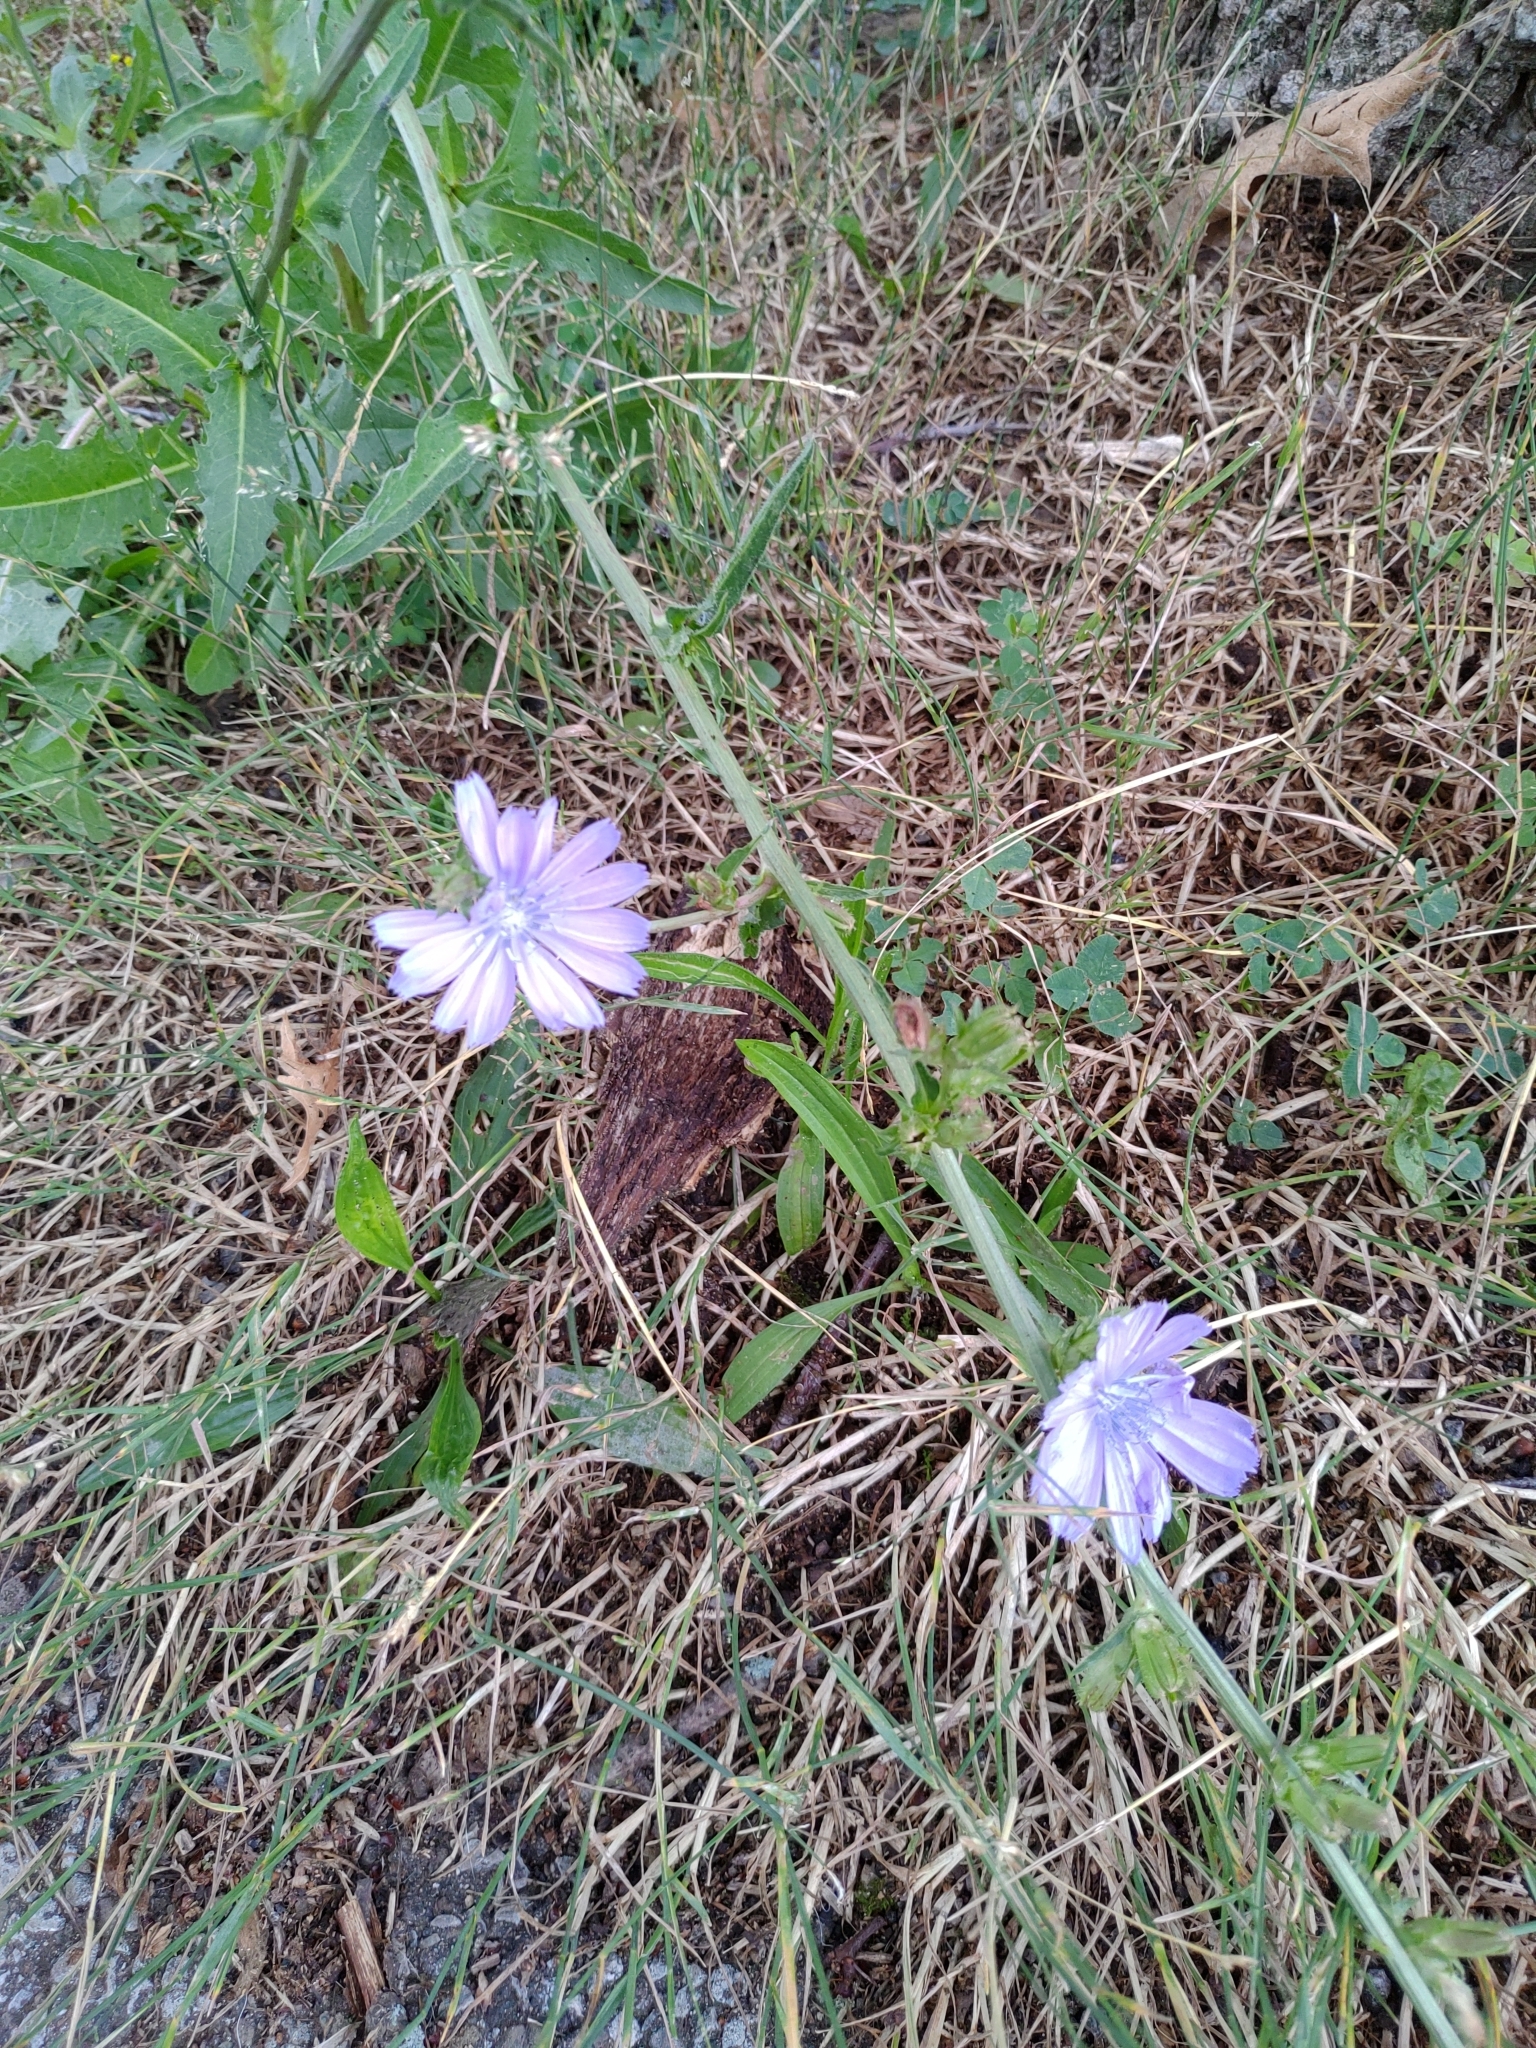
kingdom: Plantae
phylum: Tracheophyta
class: Magnoliopsida
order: Asterales
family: Asteraceae
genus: Cichorium
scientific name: Cichorium intybus
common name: Chicory
